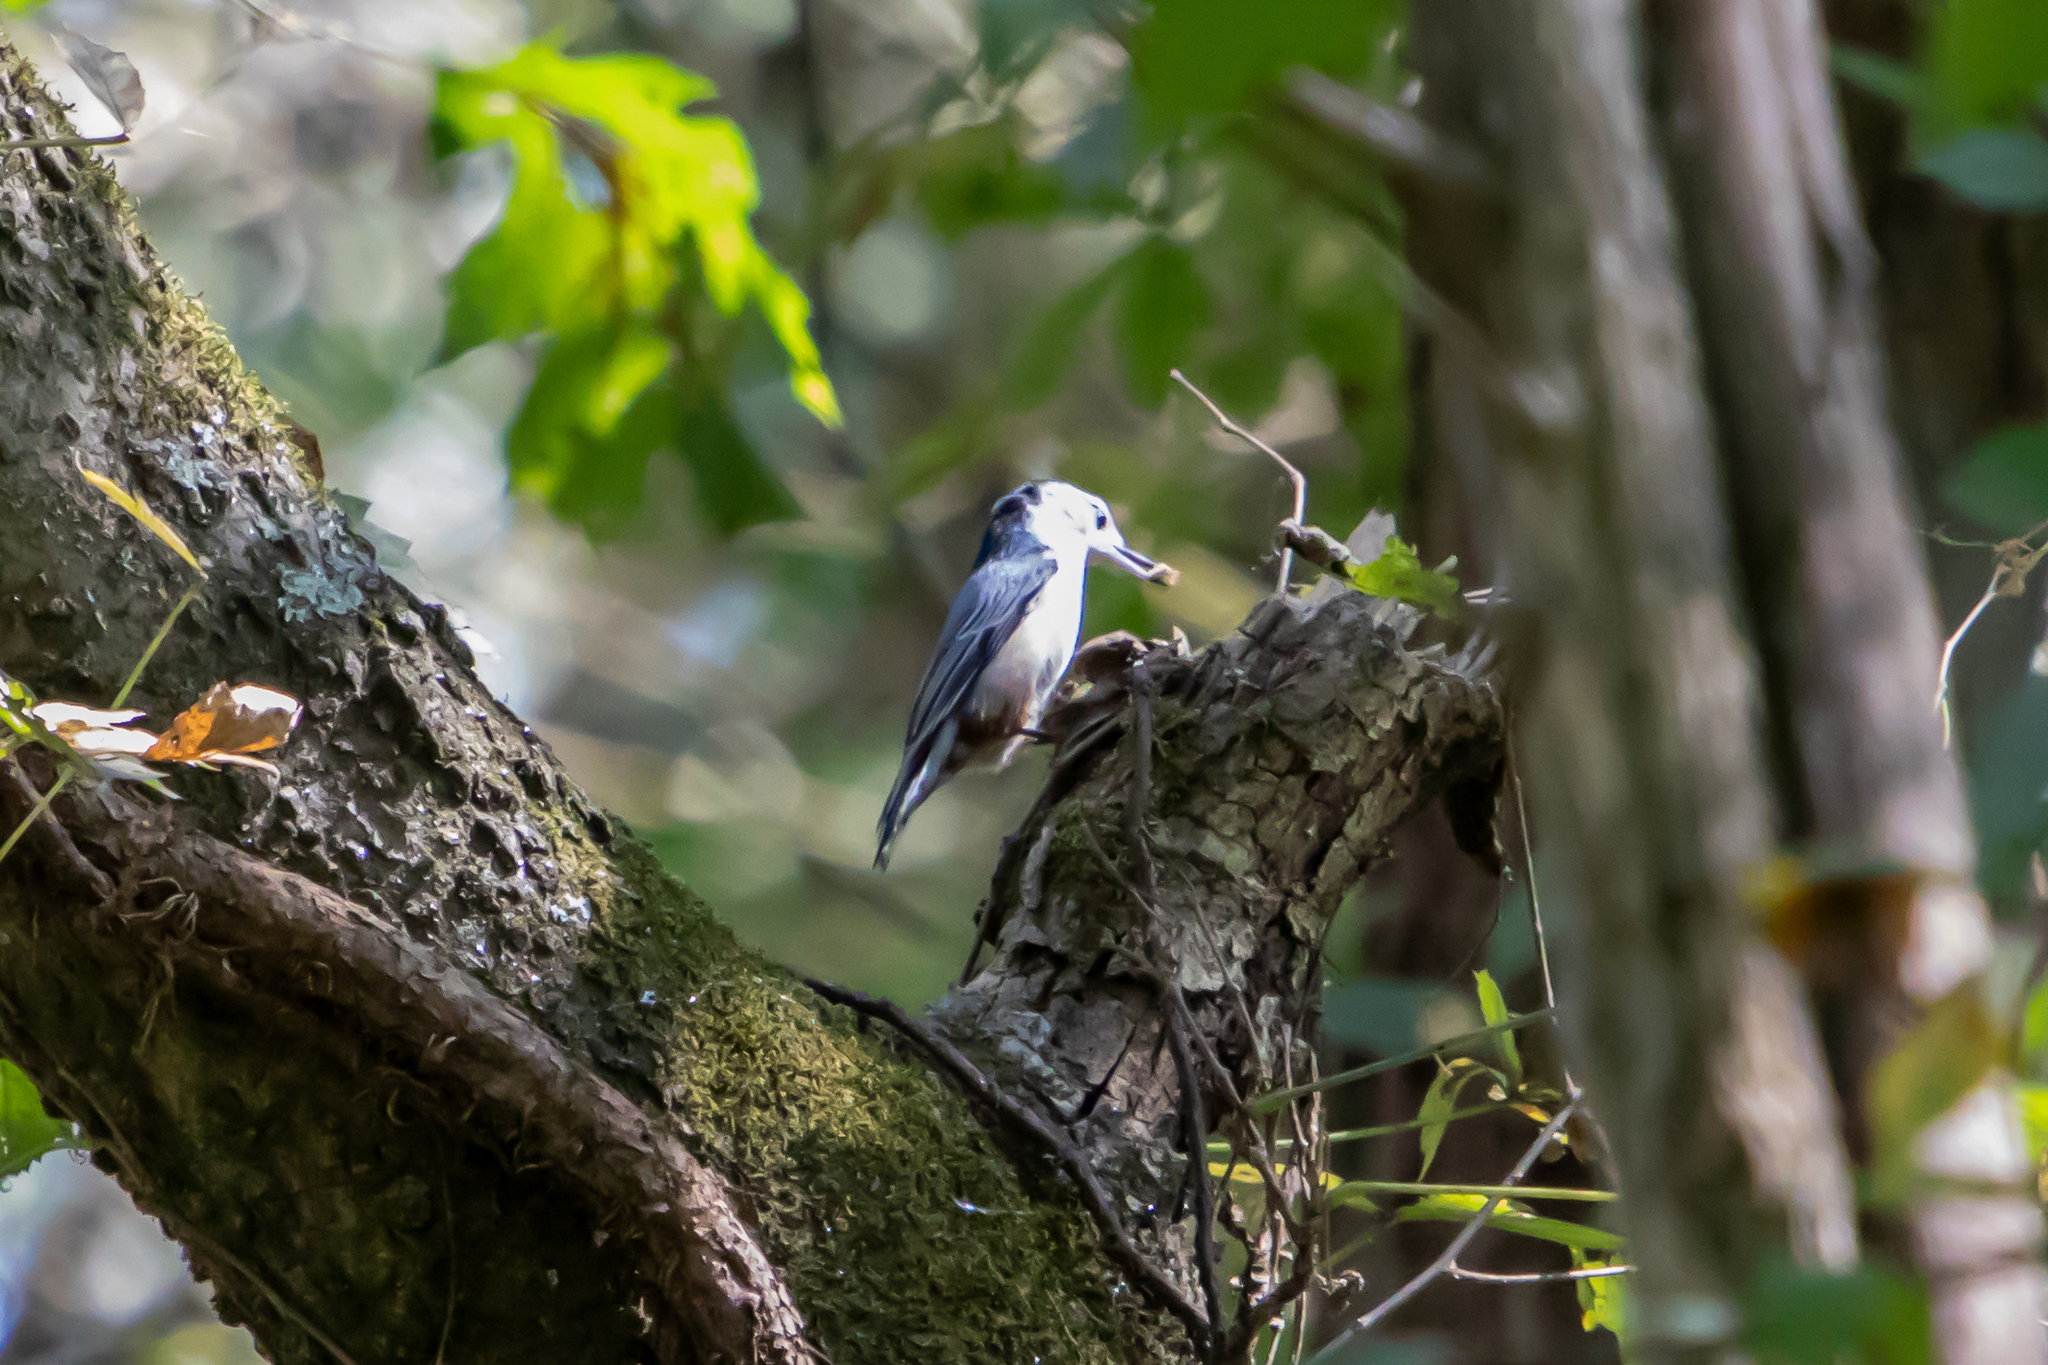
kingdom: Animalia
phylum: Chordata
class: Aves
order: Passeriformes
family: Sittidae
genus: Sitta
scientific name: Sitta carolinensis
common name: White-breasted nuthatch
